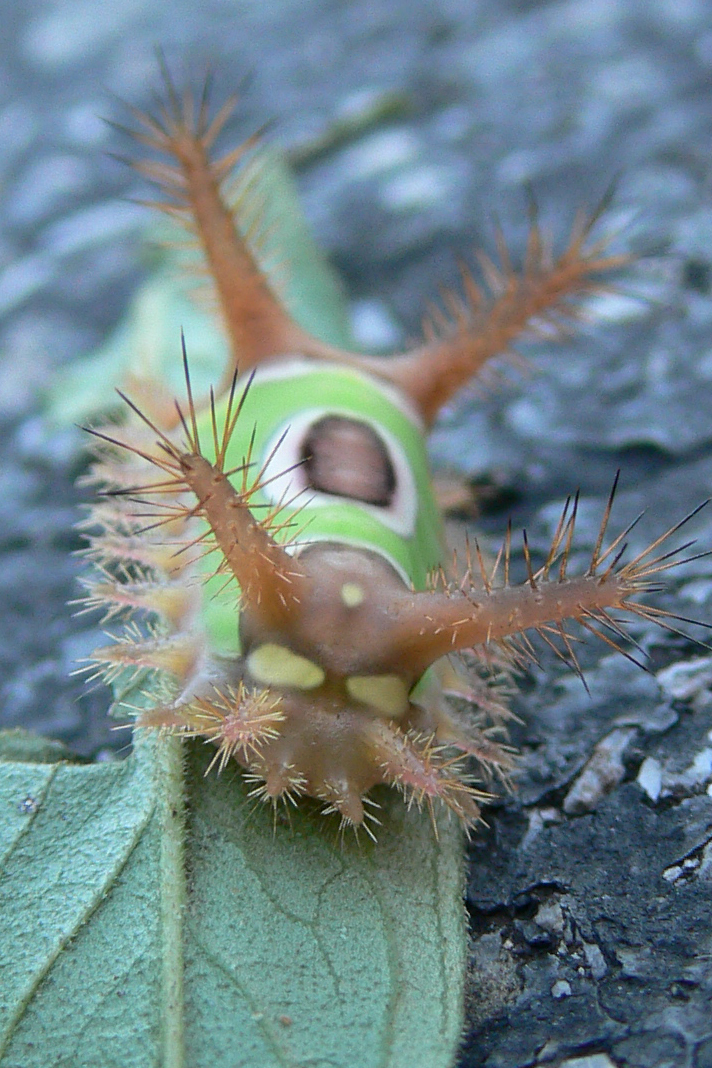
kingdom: Animalia
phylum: Arthropoda
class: Insecta
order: Lepidoptera
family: Limacodidae
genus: Acharia
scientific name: Acharia stimulea
